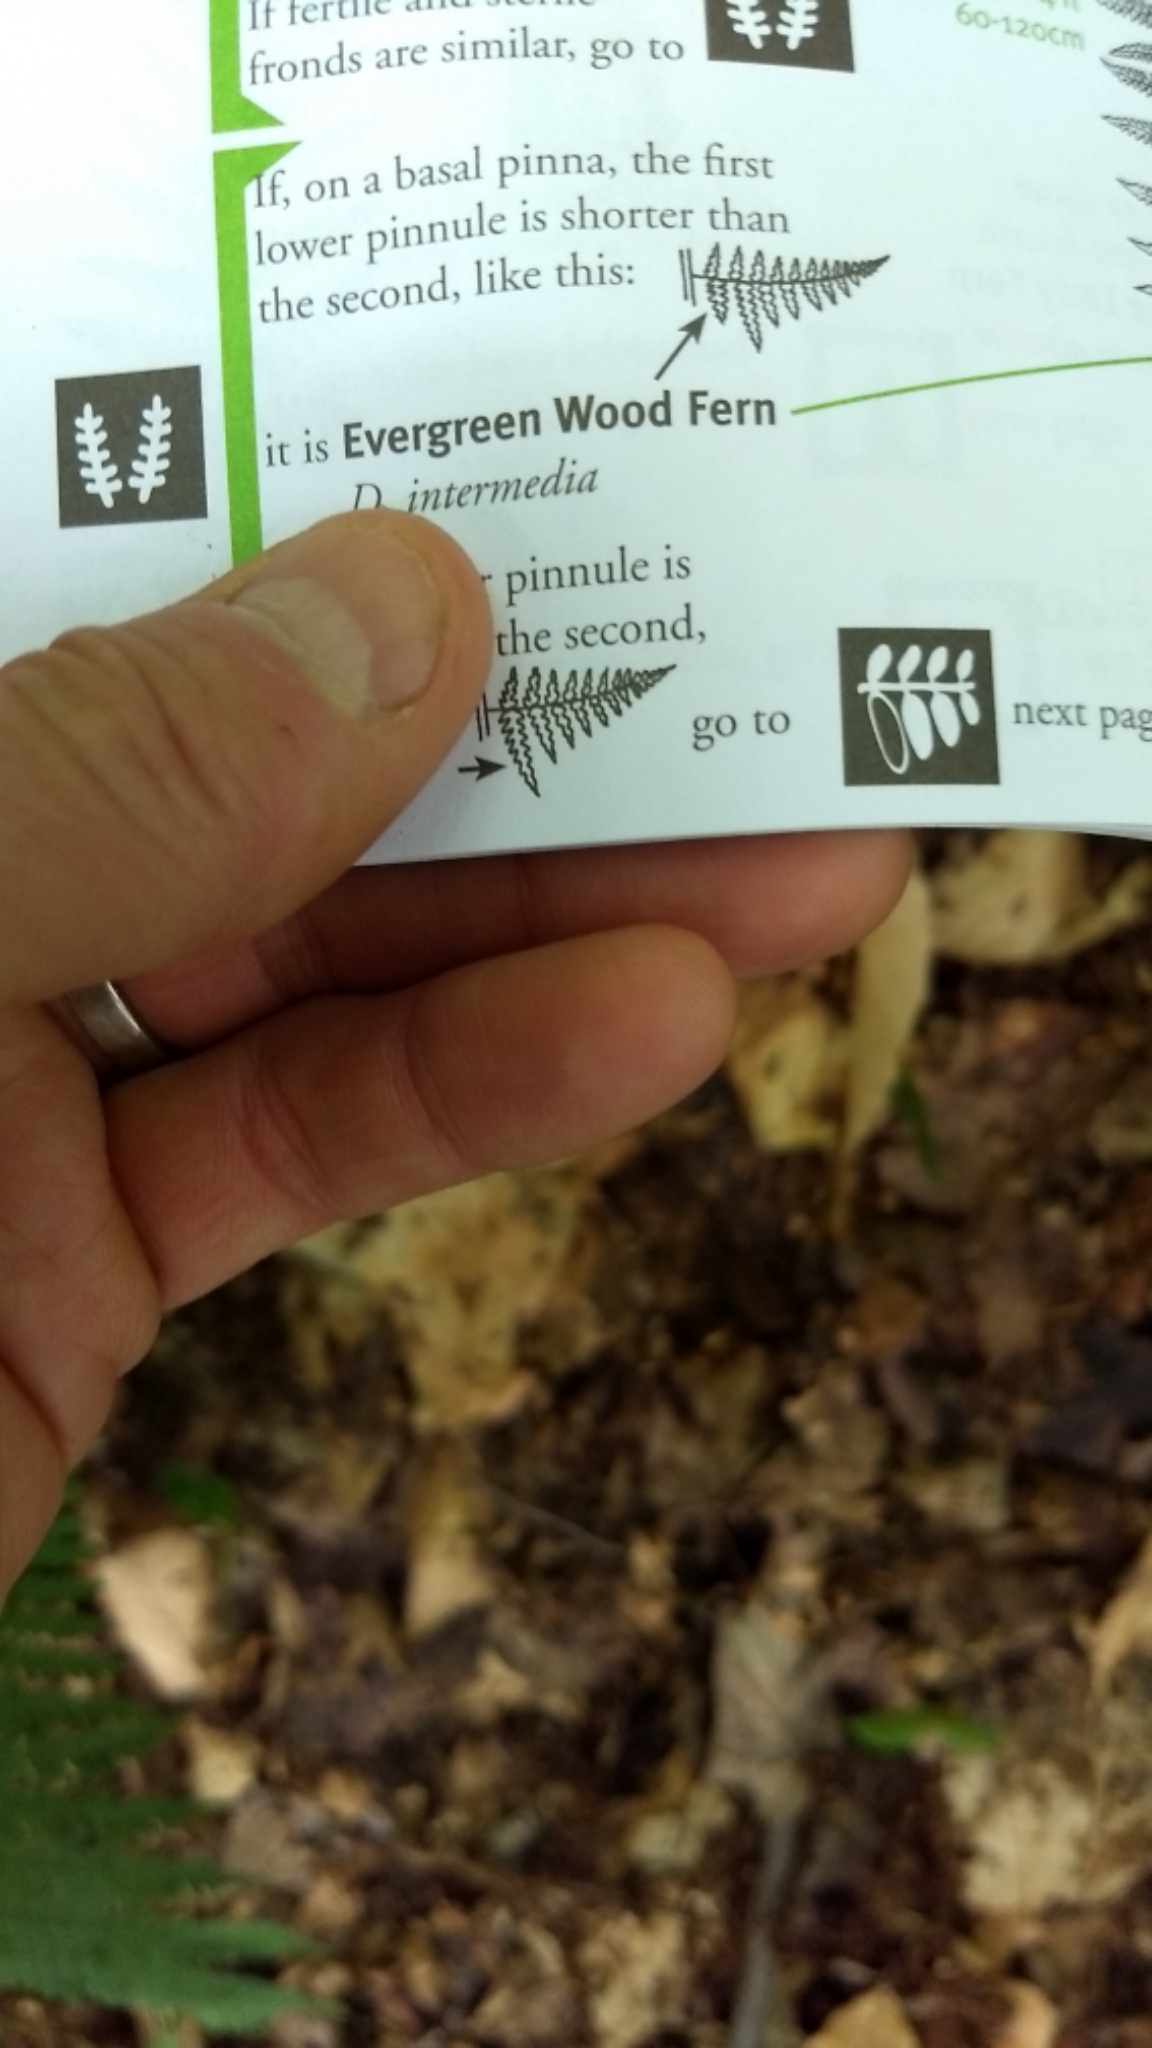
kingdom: Plantae
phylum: Tracheophyta
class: Polypodiopsida
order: Polypodiales
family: Dryopteridaceae
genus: Dryopteris
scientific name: Dryopteris intermedia
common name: Evergreen wood fern
